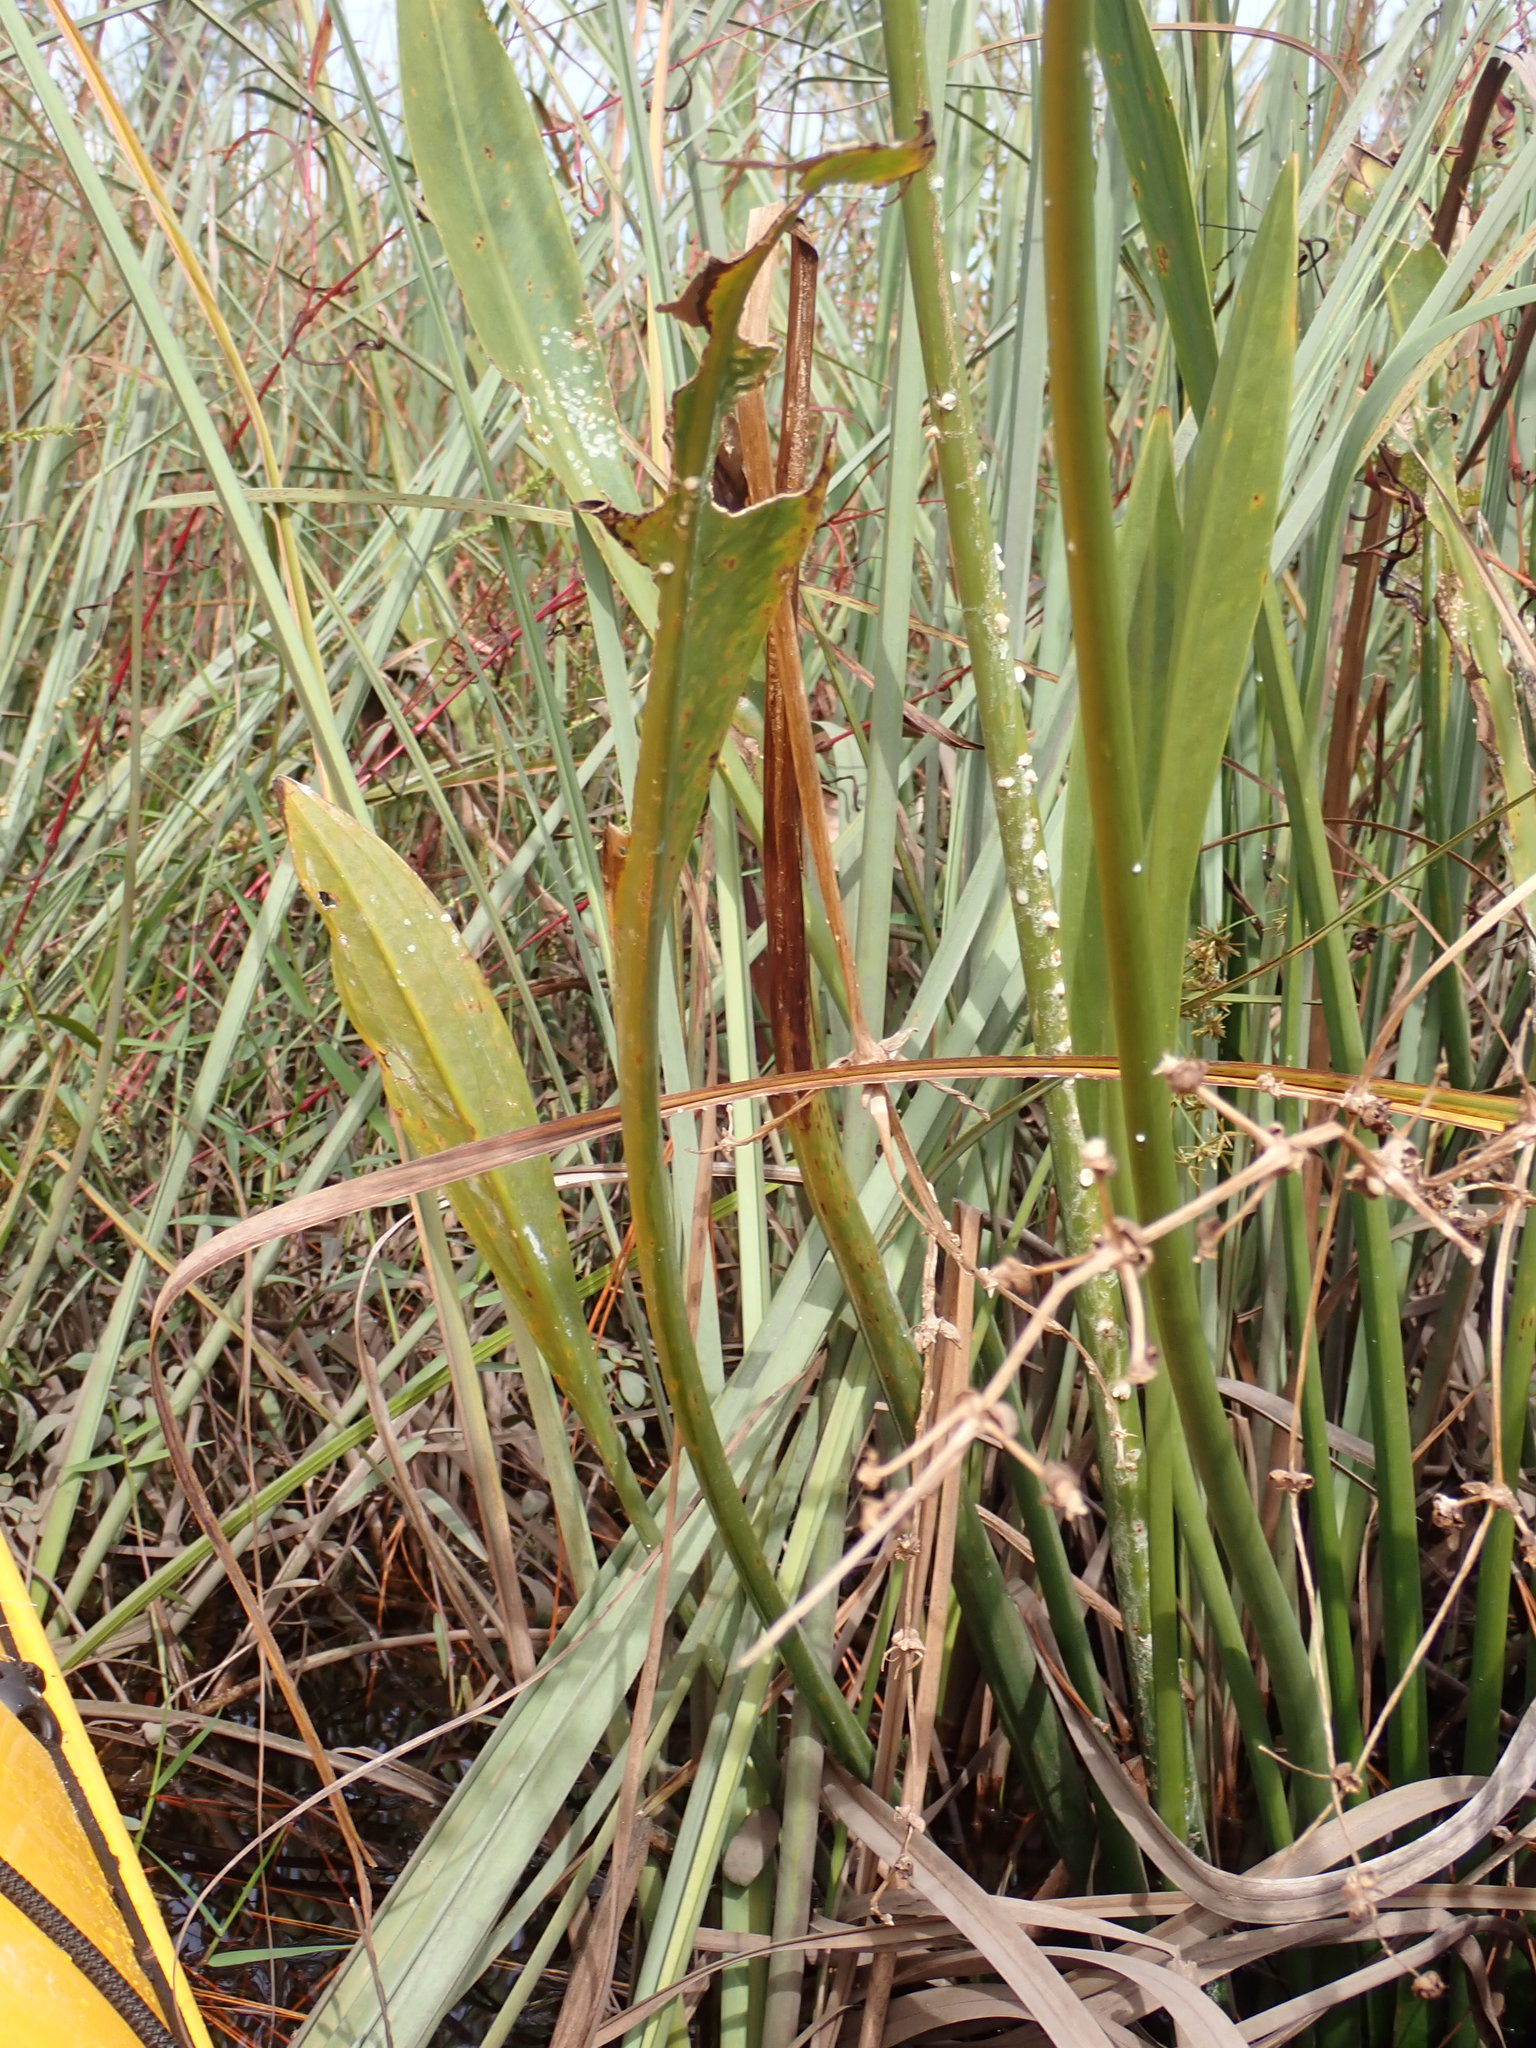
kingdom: Plantae
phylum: Tracheophyta
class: Liliopsida
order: Alismatales
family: Alismataceae
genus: Sagittaria
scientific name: Sagittaria lancifolia
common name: Lance-leaf arrowhead
